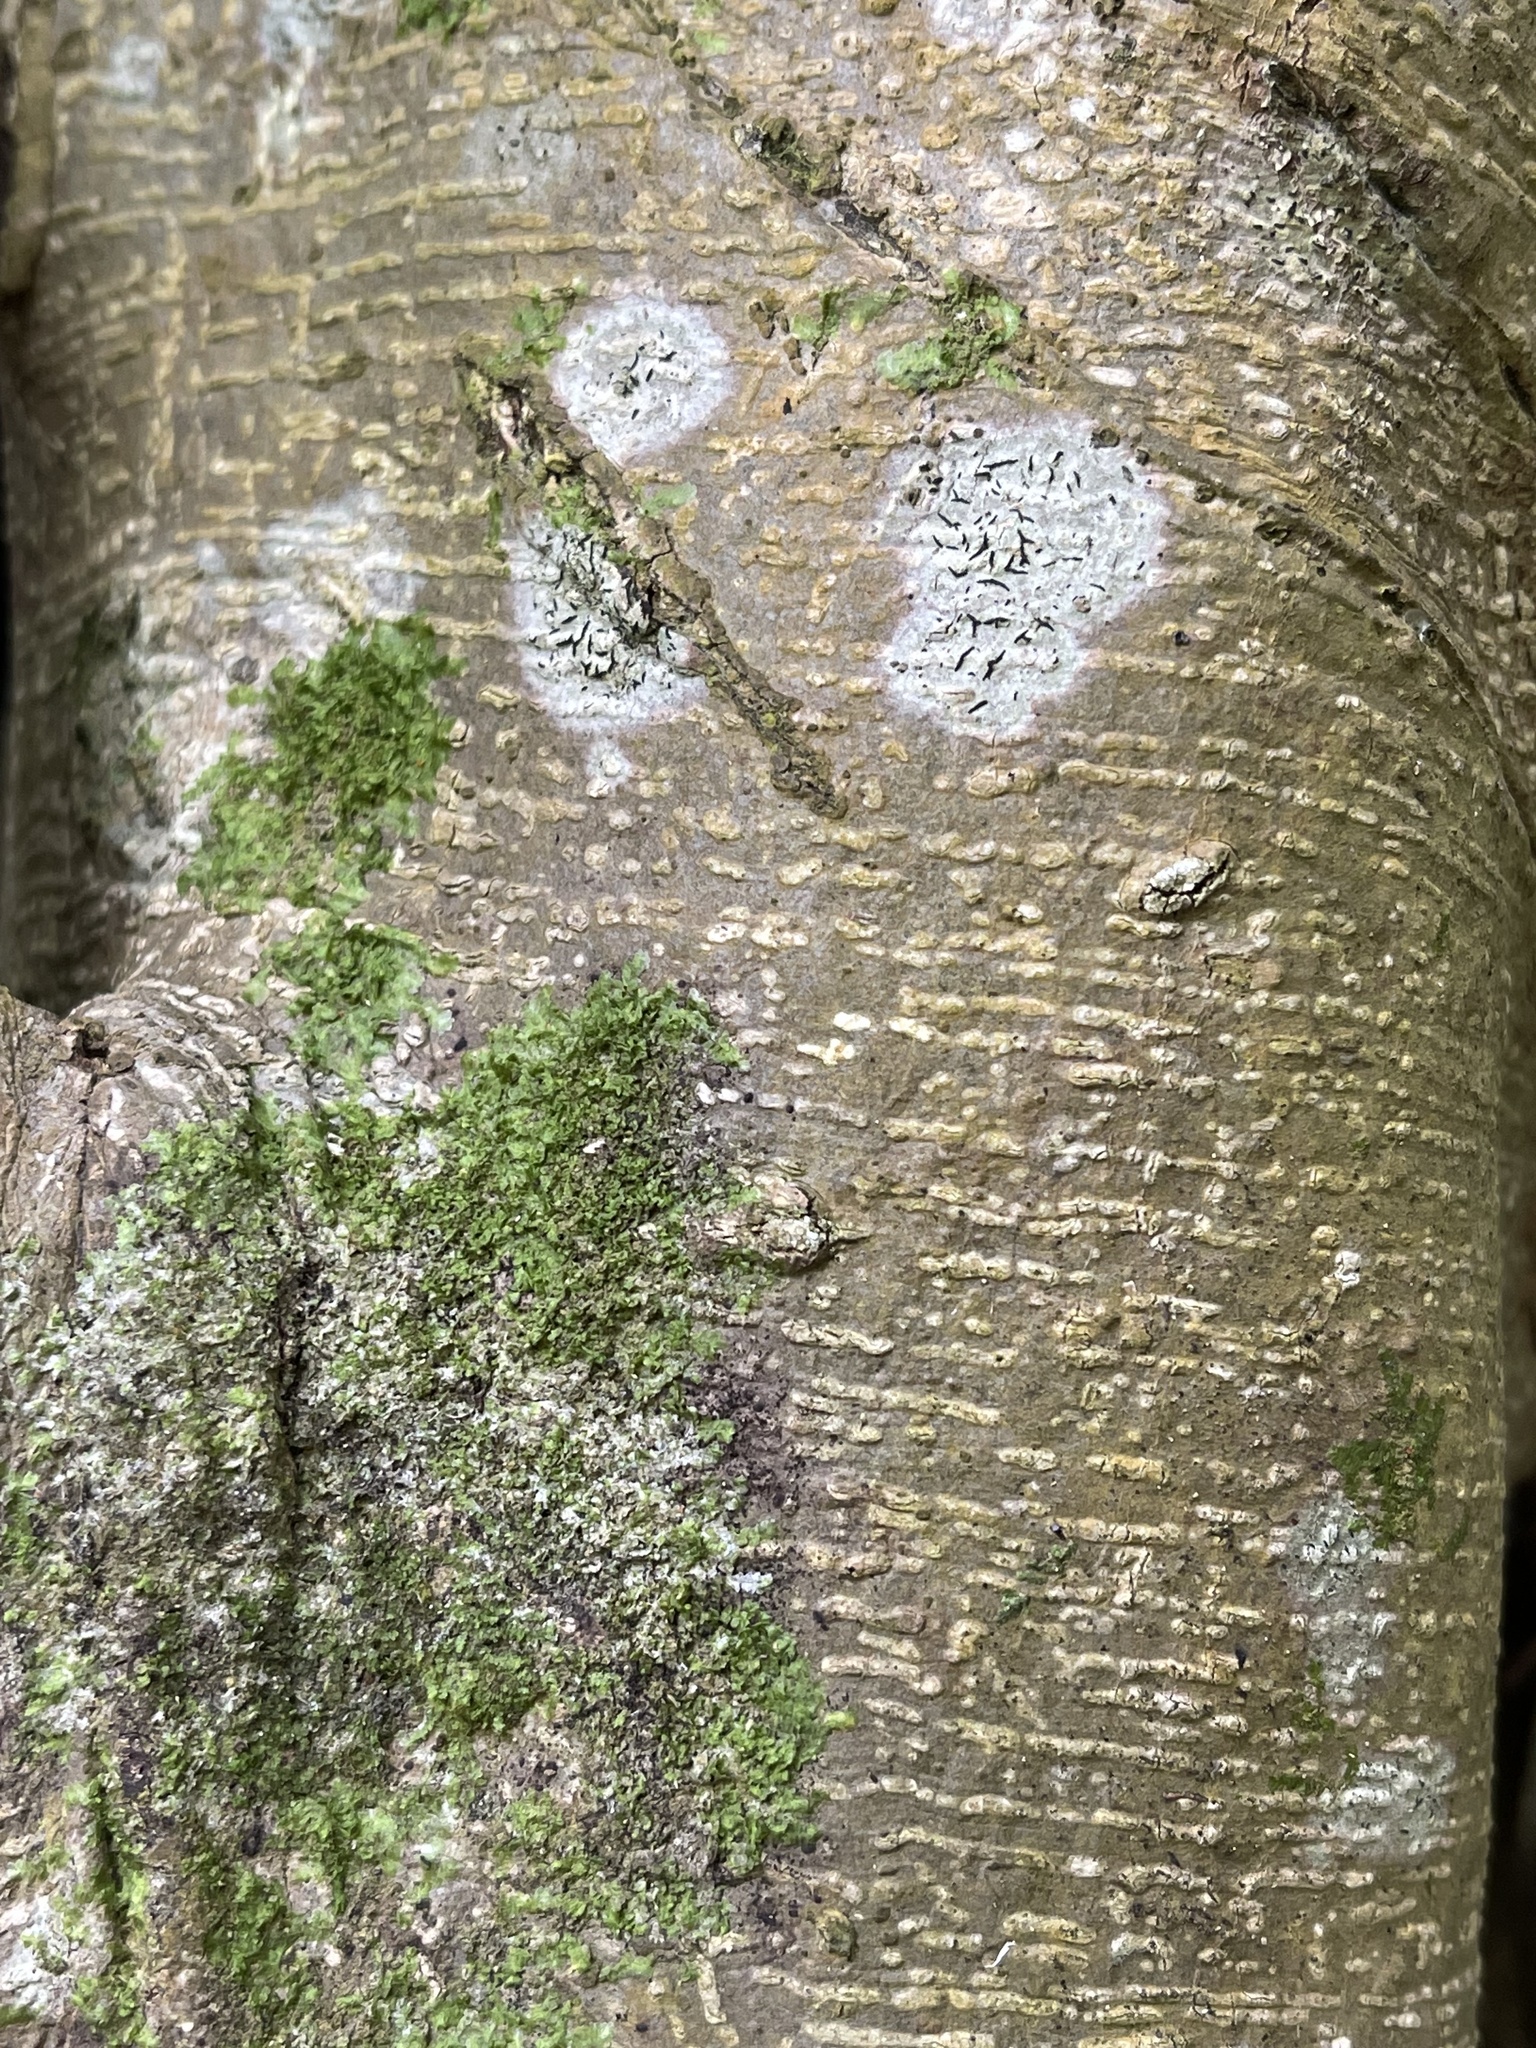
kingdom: Plantae
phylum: Tracheophyta
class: Magnoliopsida
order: Rosales
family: Moraceae
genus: Ficus
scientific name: Ficus microcarpa
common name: Chinese banyan
